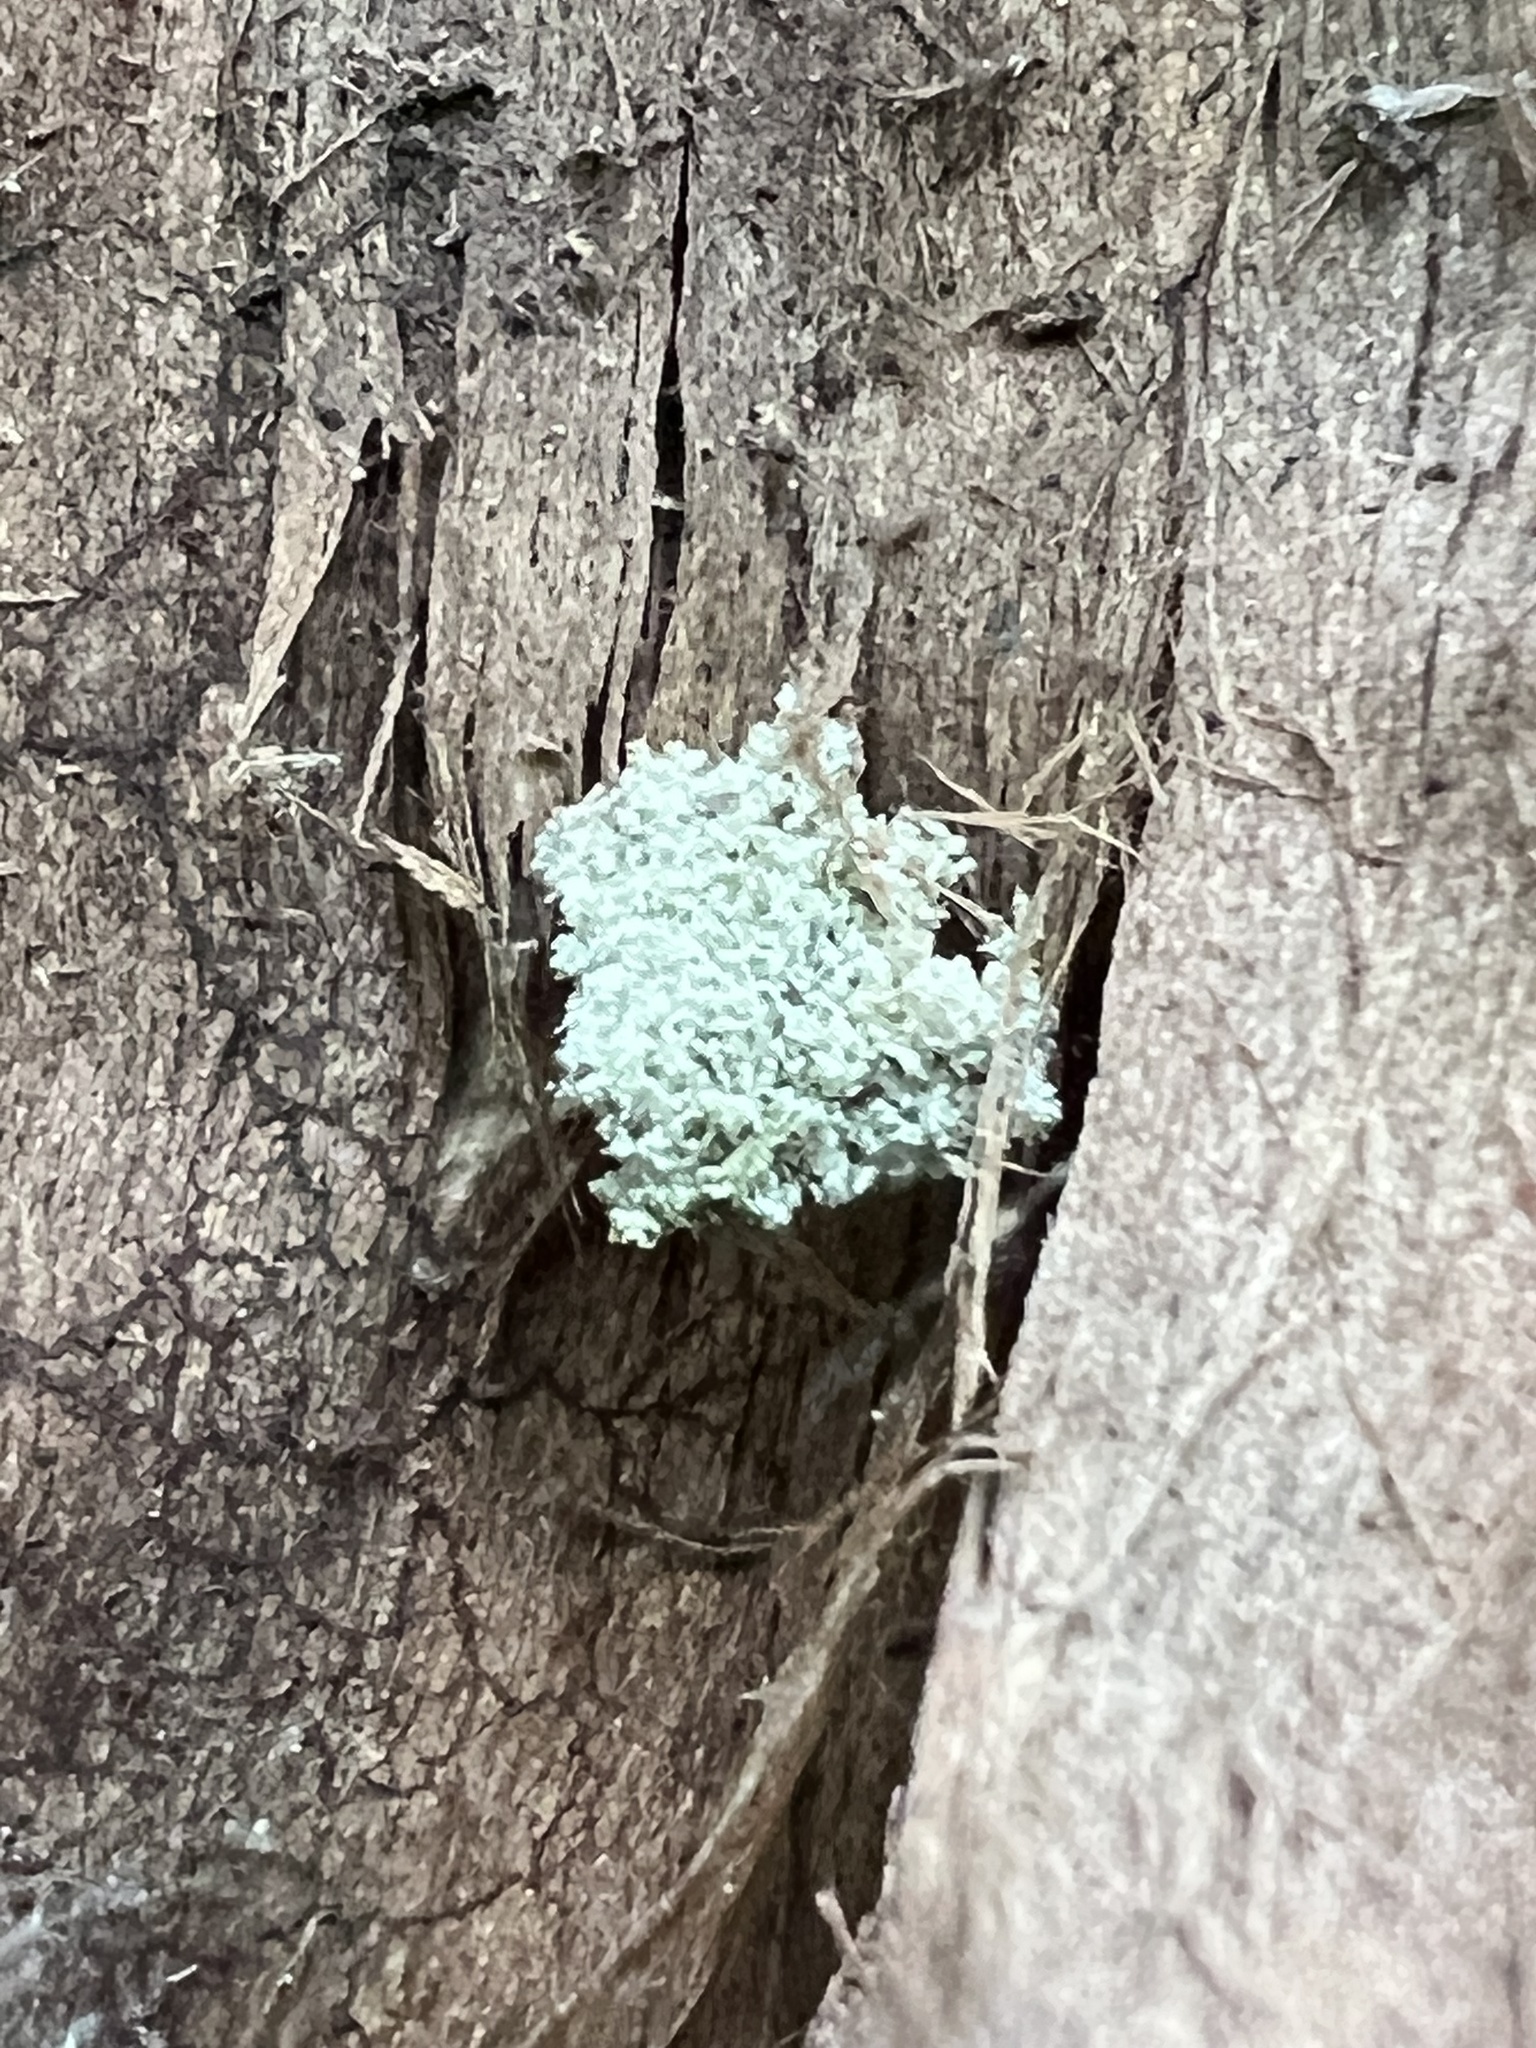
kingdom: Animalia
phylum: Arthropoda
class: Insecta
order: Neuroptera
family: Chrysopidae
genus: Leucochrysa
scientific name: Leucochrysa pavida
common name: Lichen-carrying green lacewing
